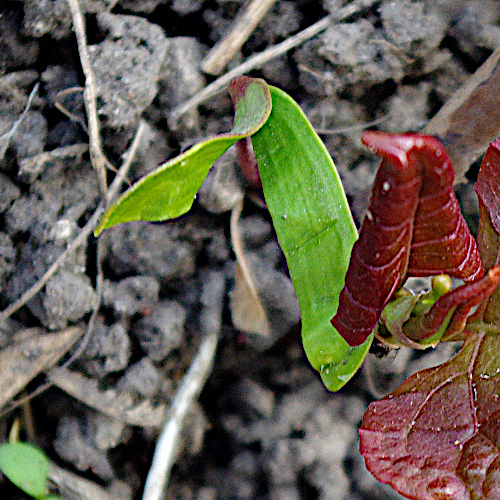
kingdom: Plantae
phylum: Tracheophyta
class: Magnoliopsida
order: Sapindales
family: Sapindaceae
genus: Acer
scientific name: Acer platanoides
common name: Norway maple
